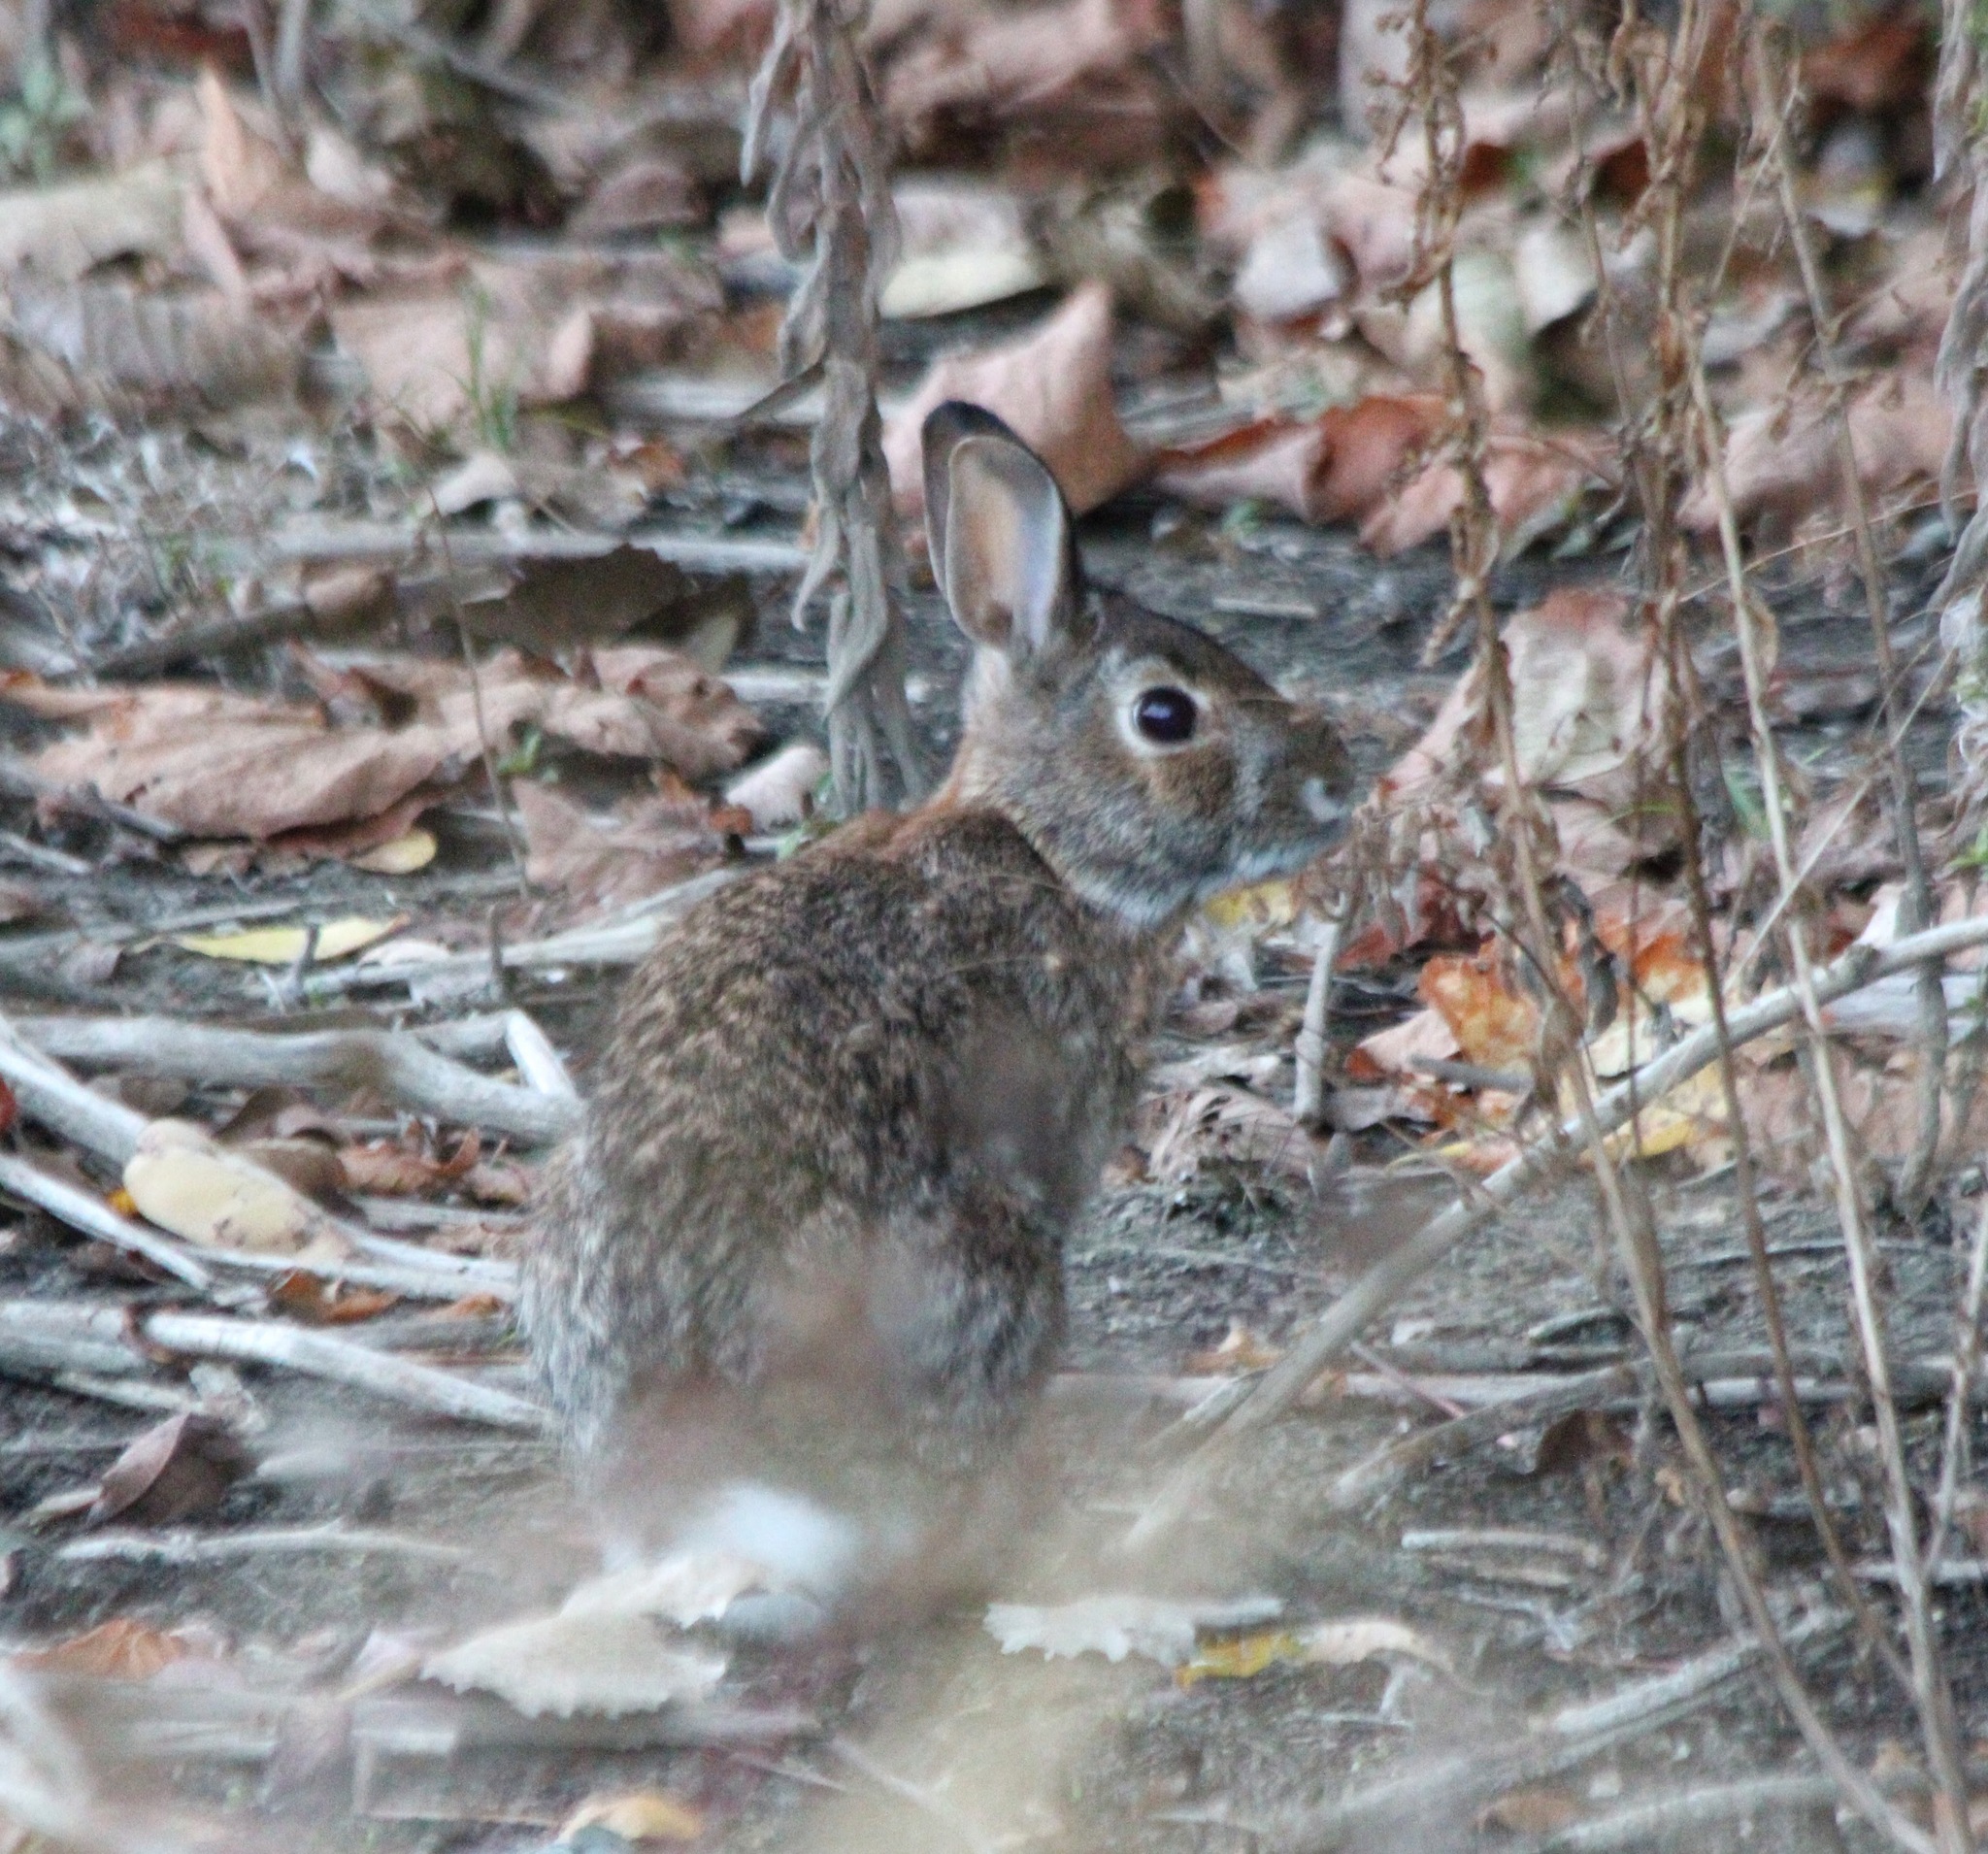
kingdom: Animalia
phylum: Chordata
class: Mammalia
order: Lagomorpha
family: Leporidae
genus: Sylvilagus
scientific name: Sylvilagus floridanus
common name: Eastern cottontail
